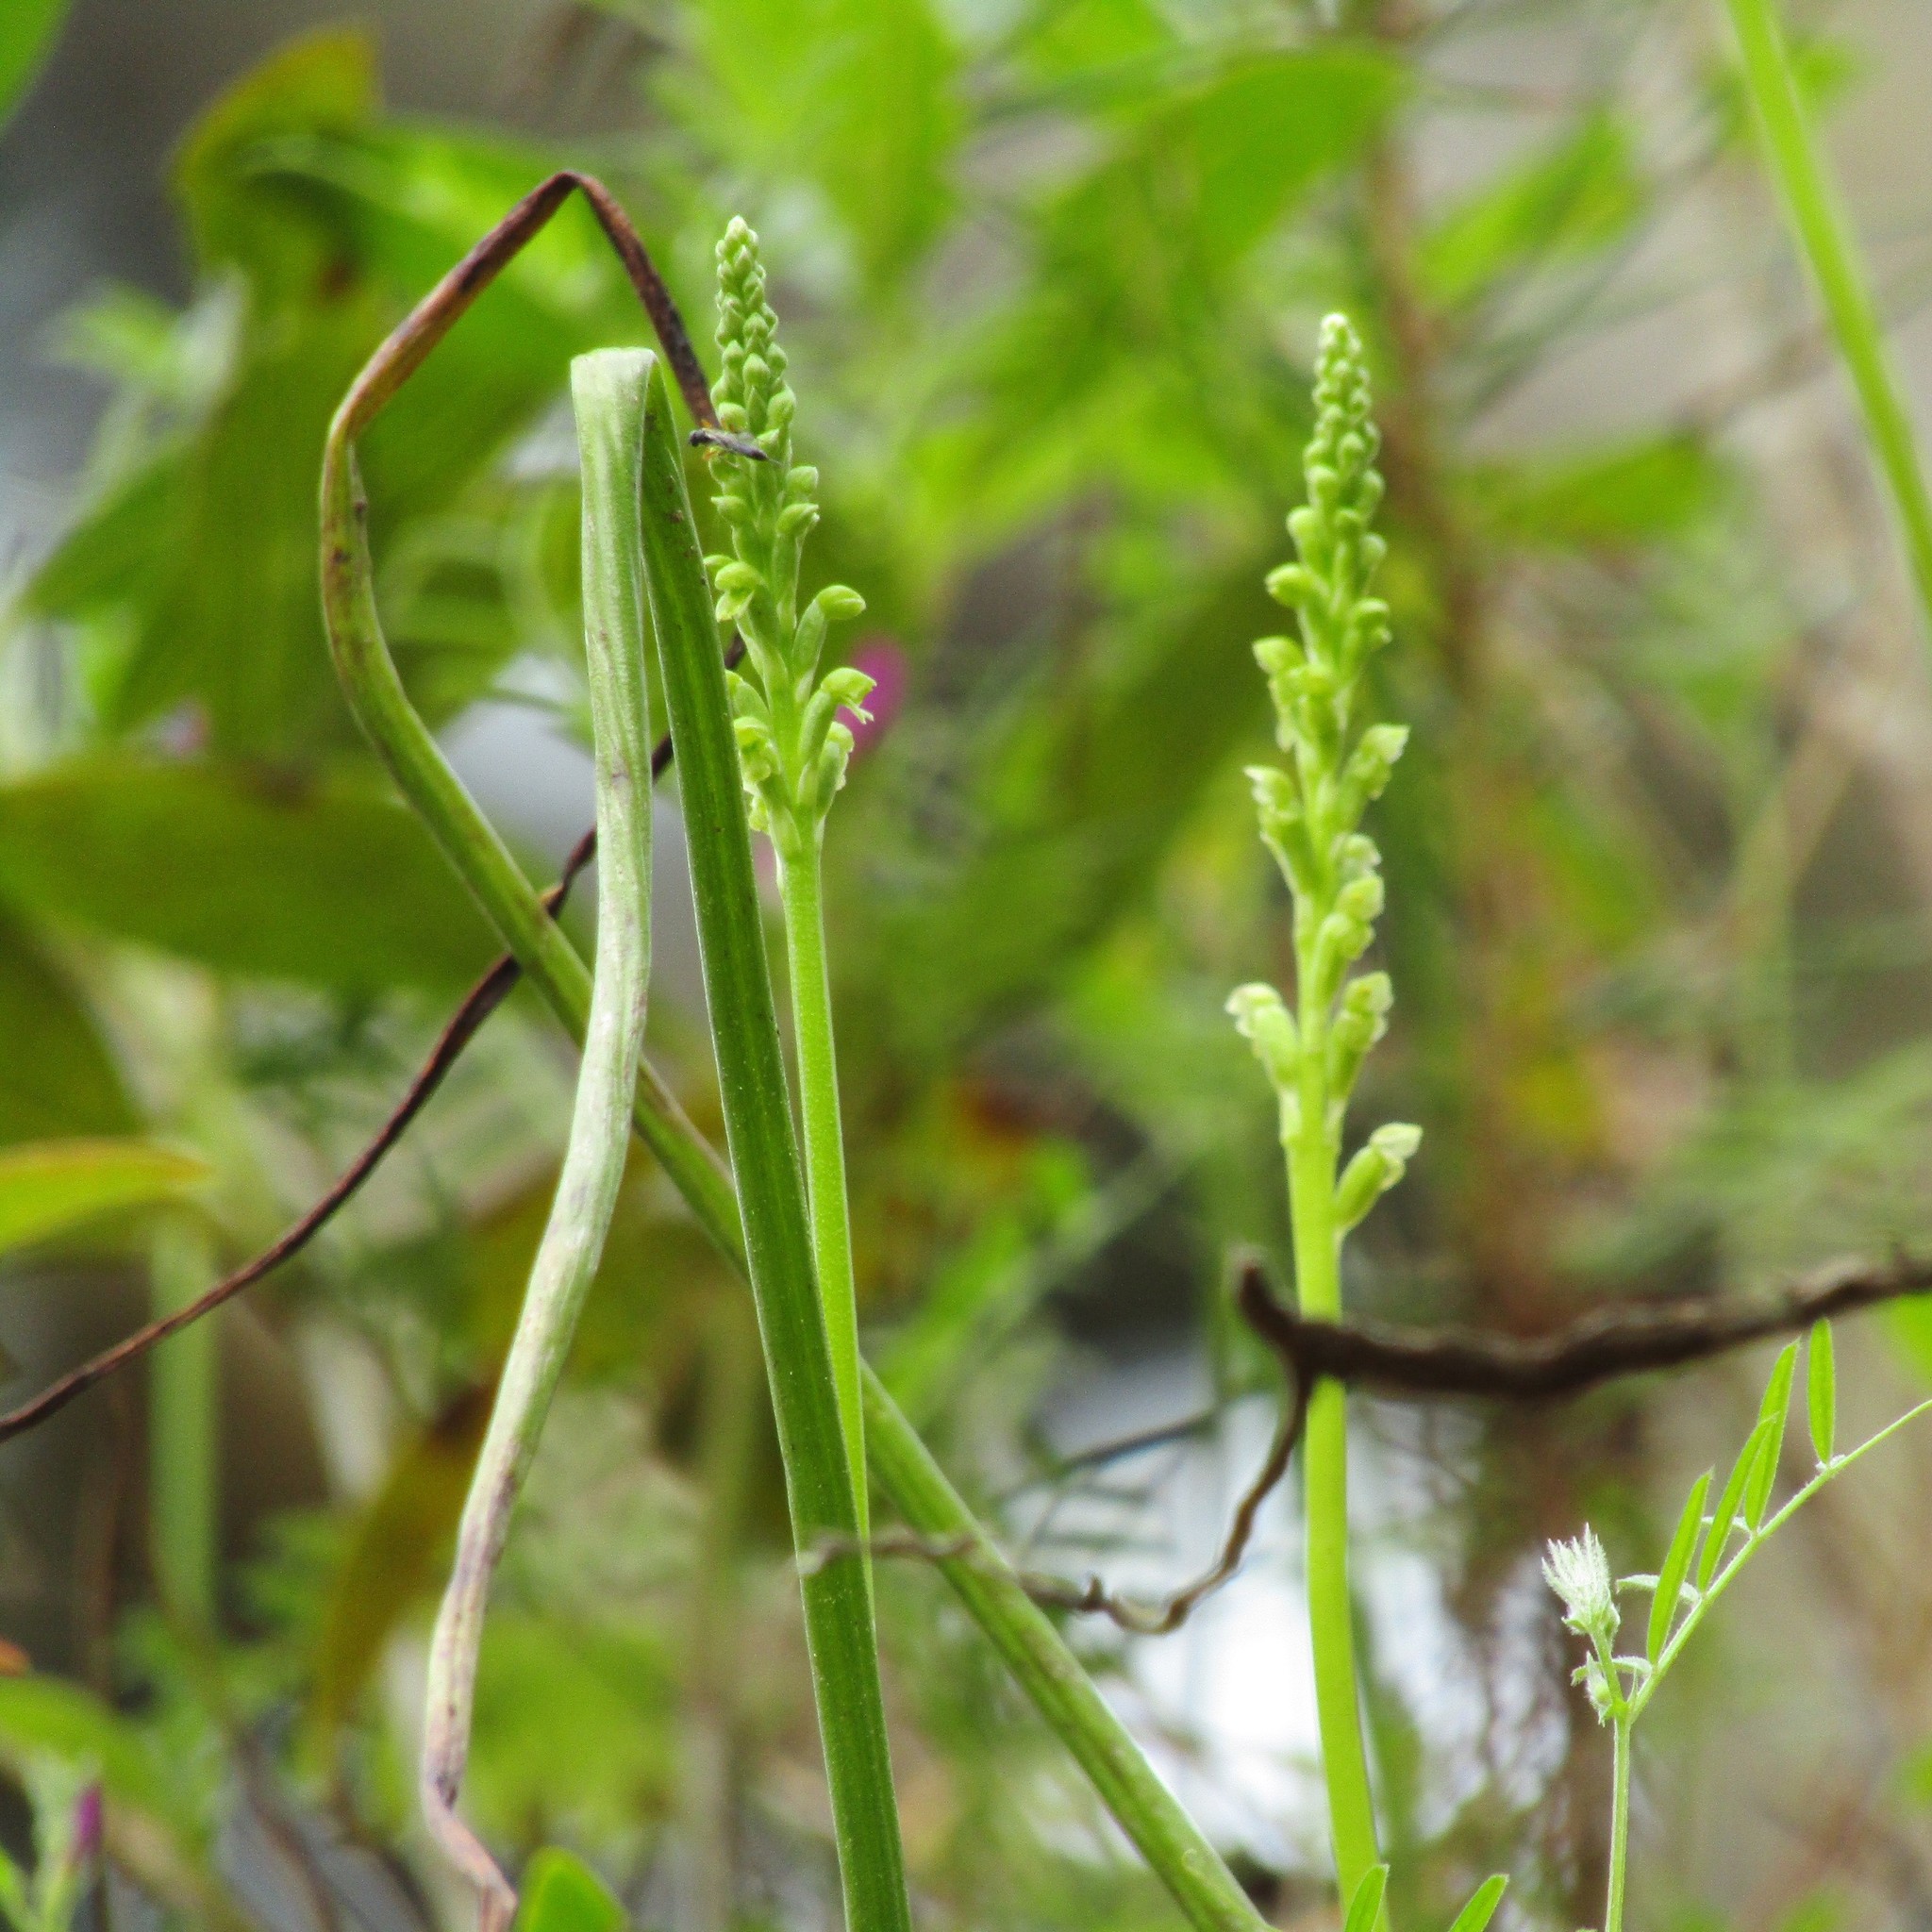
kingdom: Plantae
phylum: Tracheophyta
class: Liliopsida
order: Asparagales
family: Orchidaceae
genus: Microtis
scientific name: Microtis unifolia
